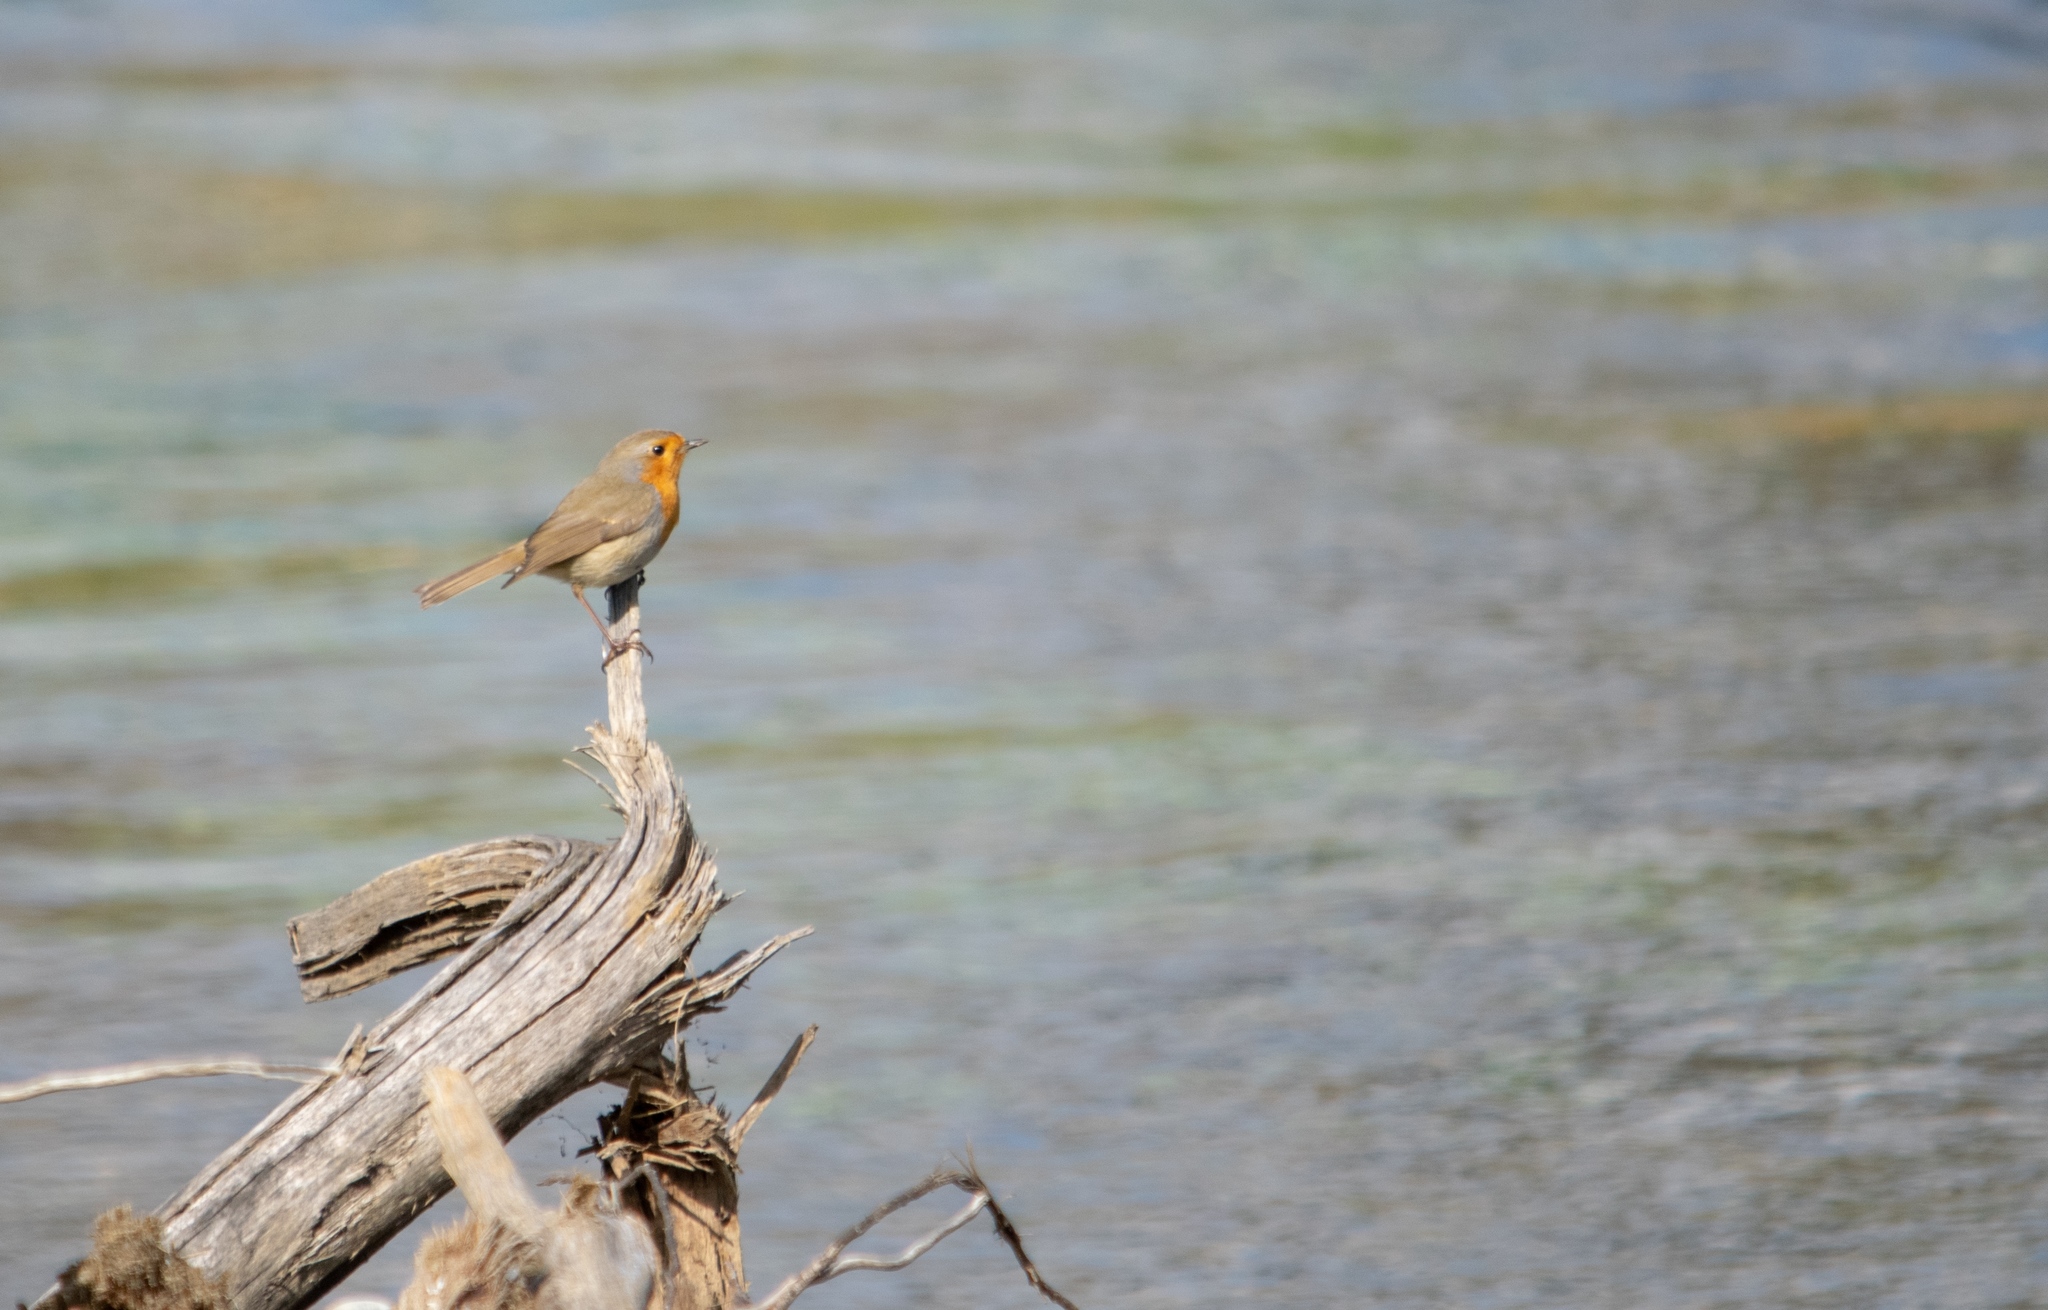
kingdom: Animalia
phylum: Chordata
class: Aves
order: Passeriformes
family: Muscicapidae
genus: Erithacus
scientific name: Erithacus rubecula
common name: European robin
